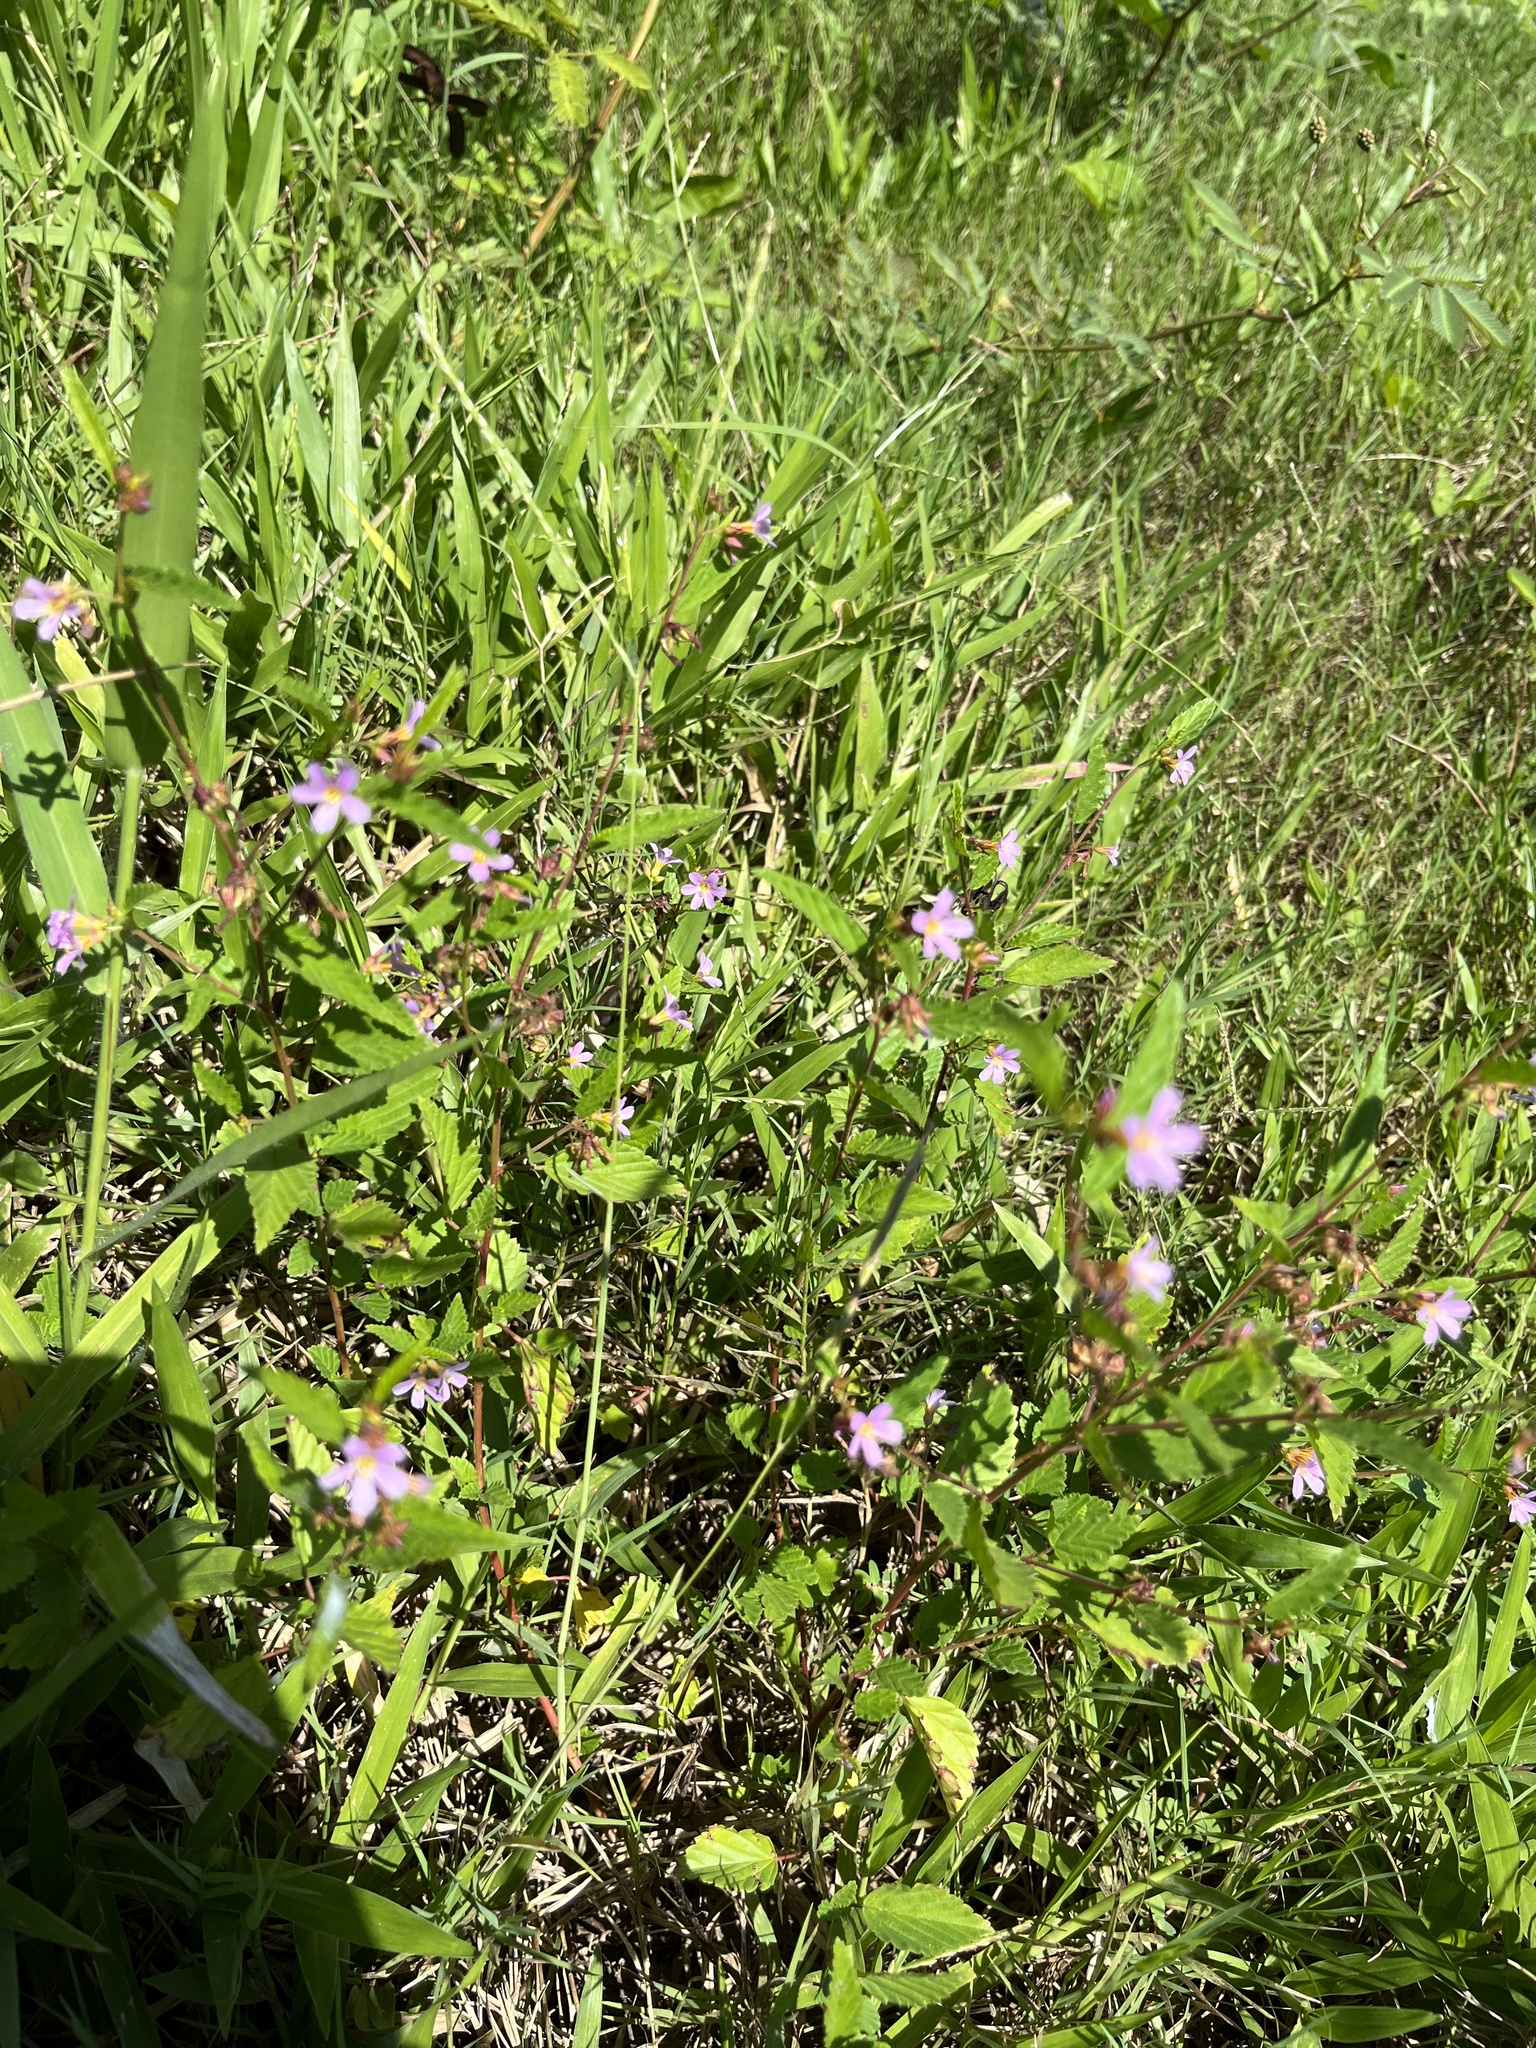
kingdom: Plantae
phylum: Tracheophyta
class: Magnoliopsida
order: Malvales
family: Malvaceae
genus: Melochia
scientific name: Melochia pyramidata
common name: Pyramidflower
